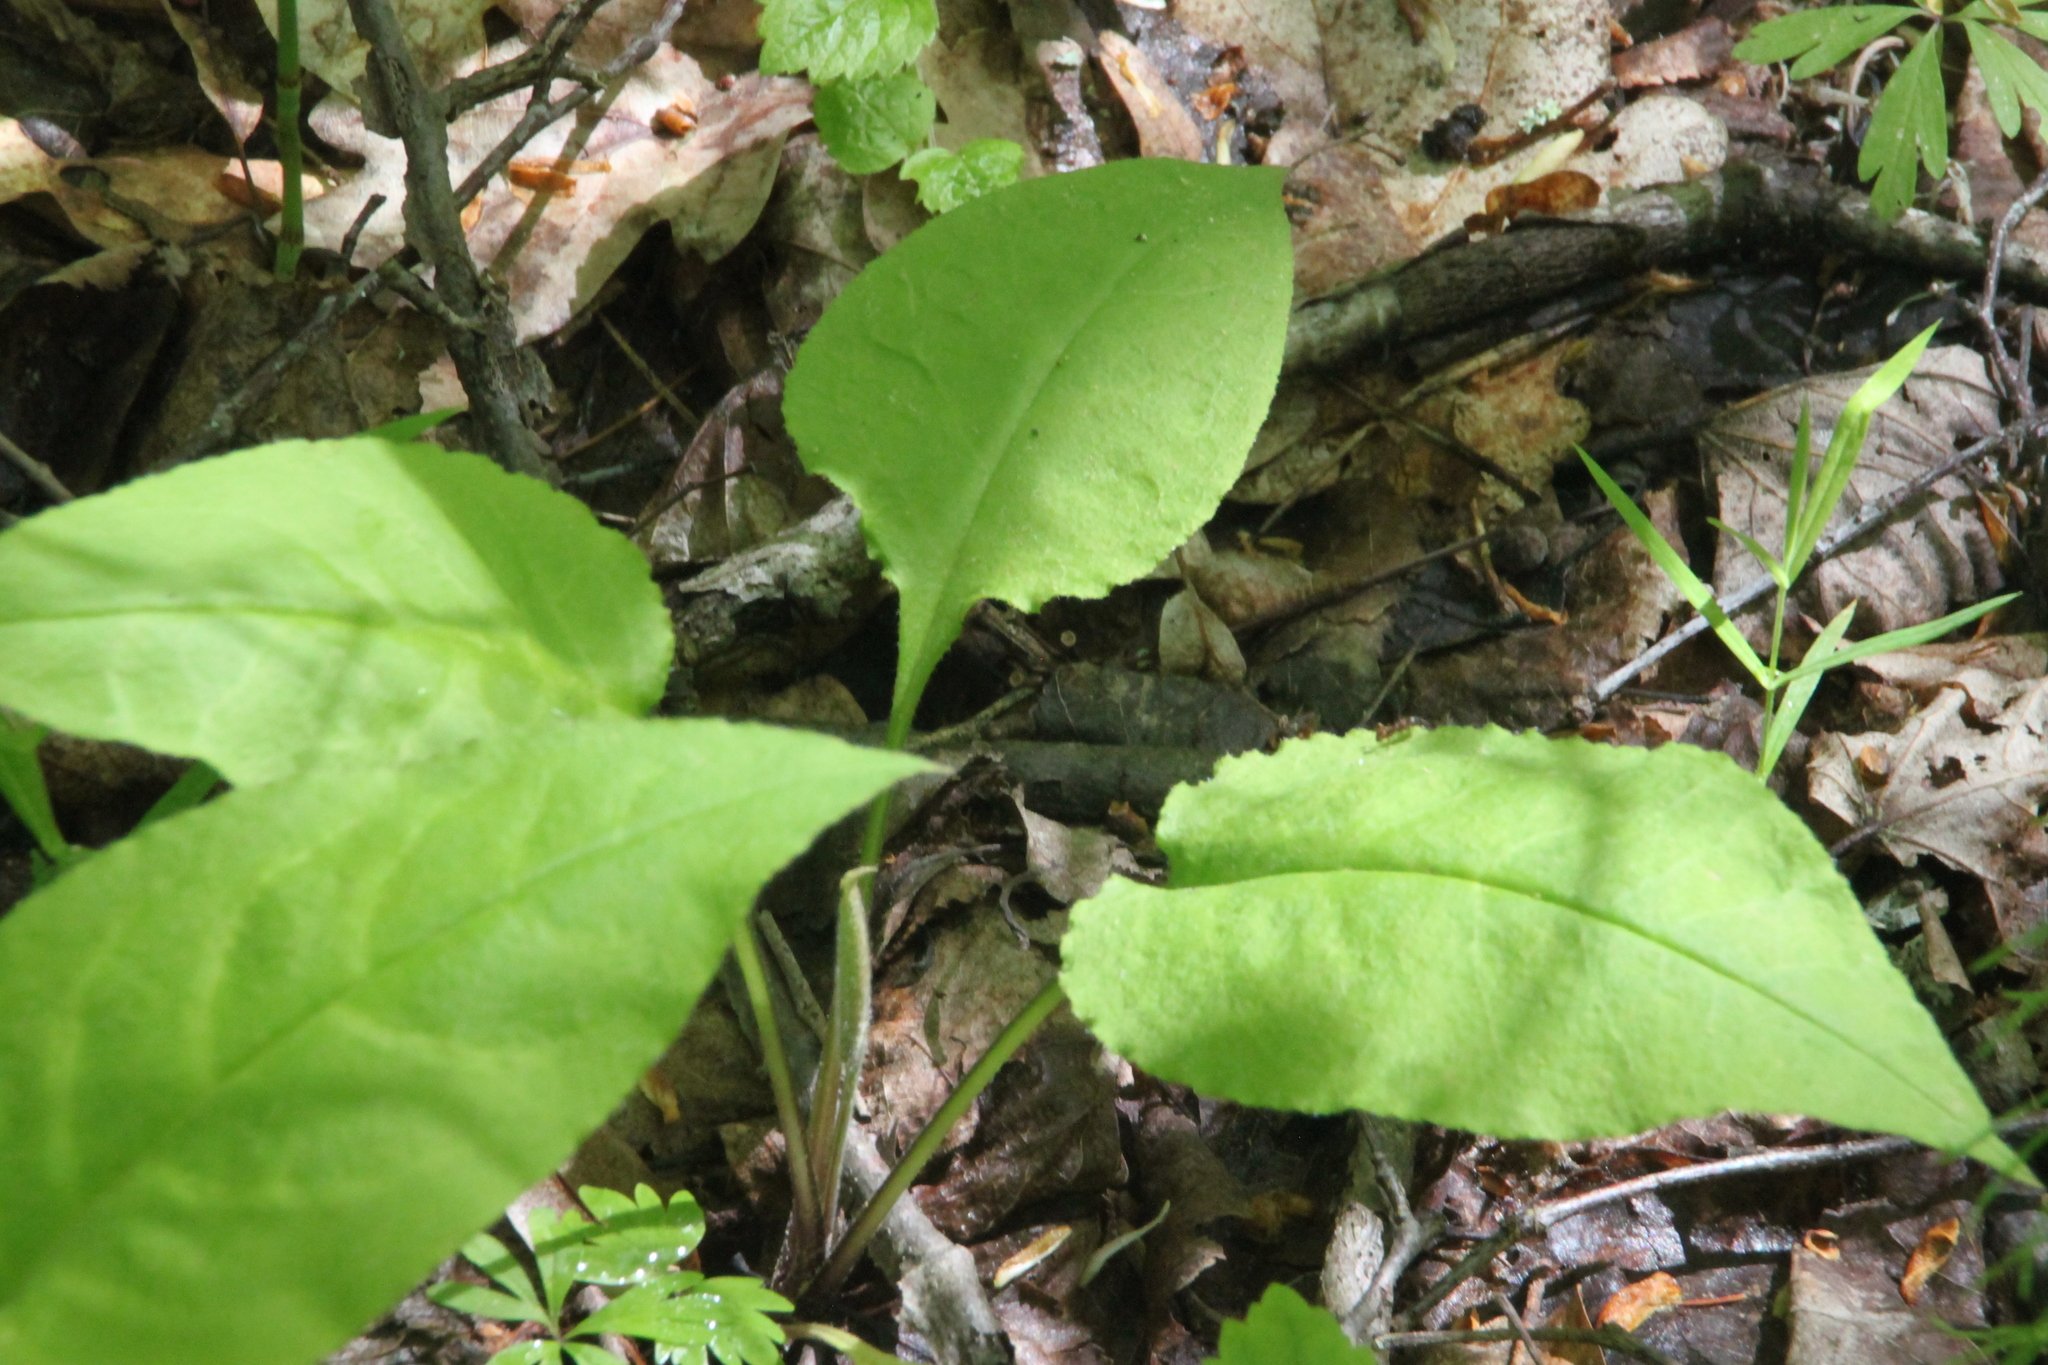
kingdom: Plantae
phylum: Tracheophyta
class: Magnoliopsida
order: Boraginales
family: Boraginaceae
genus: Pulmonaria
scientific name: Pulmonaria obscura
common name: Suffolk lungwort
